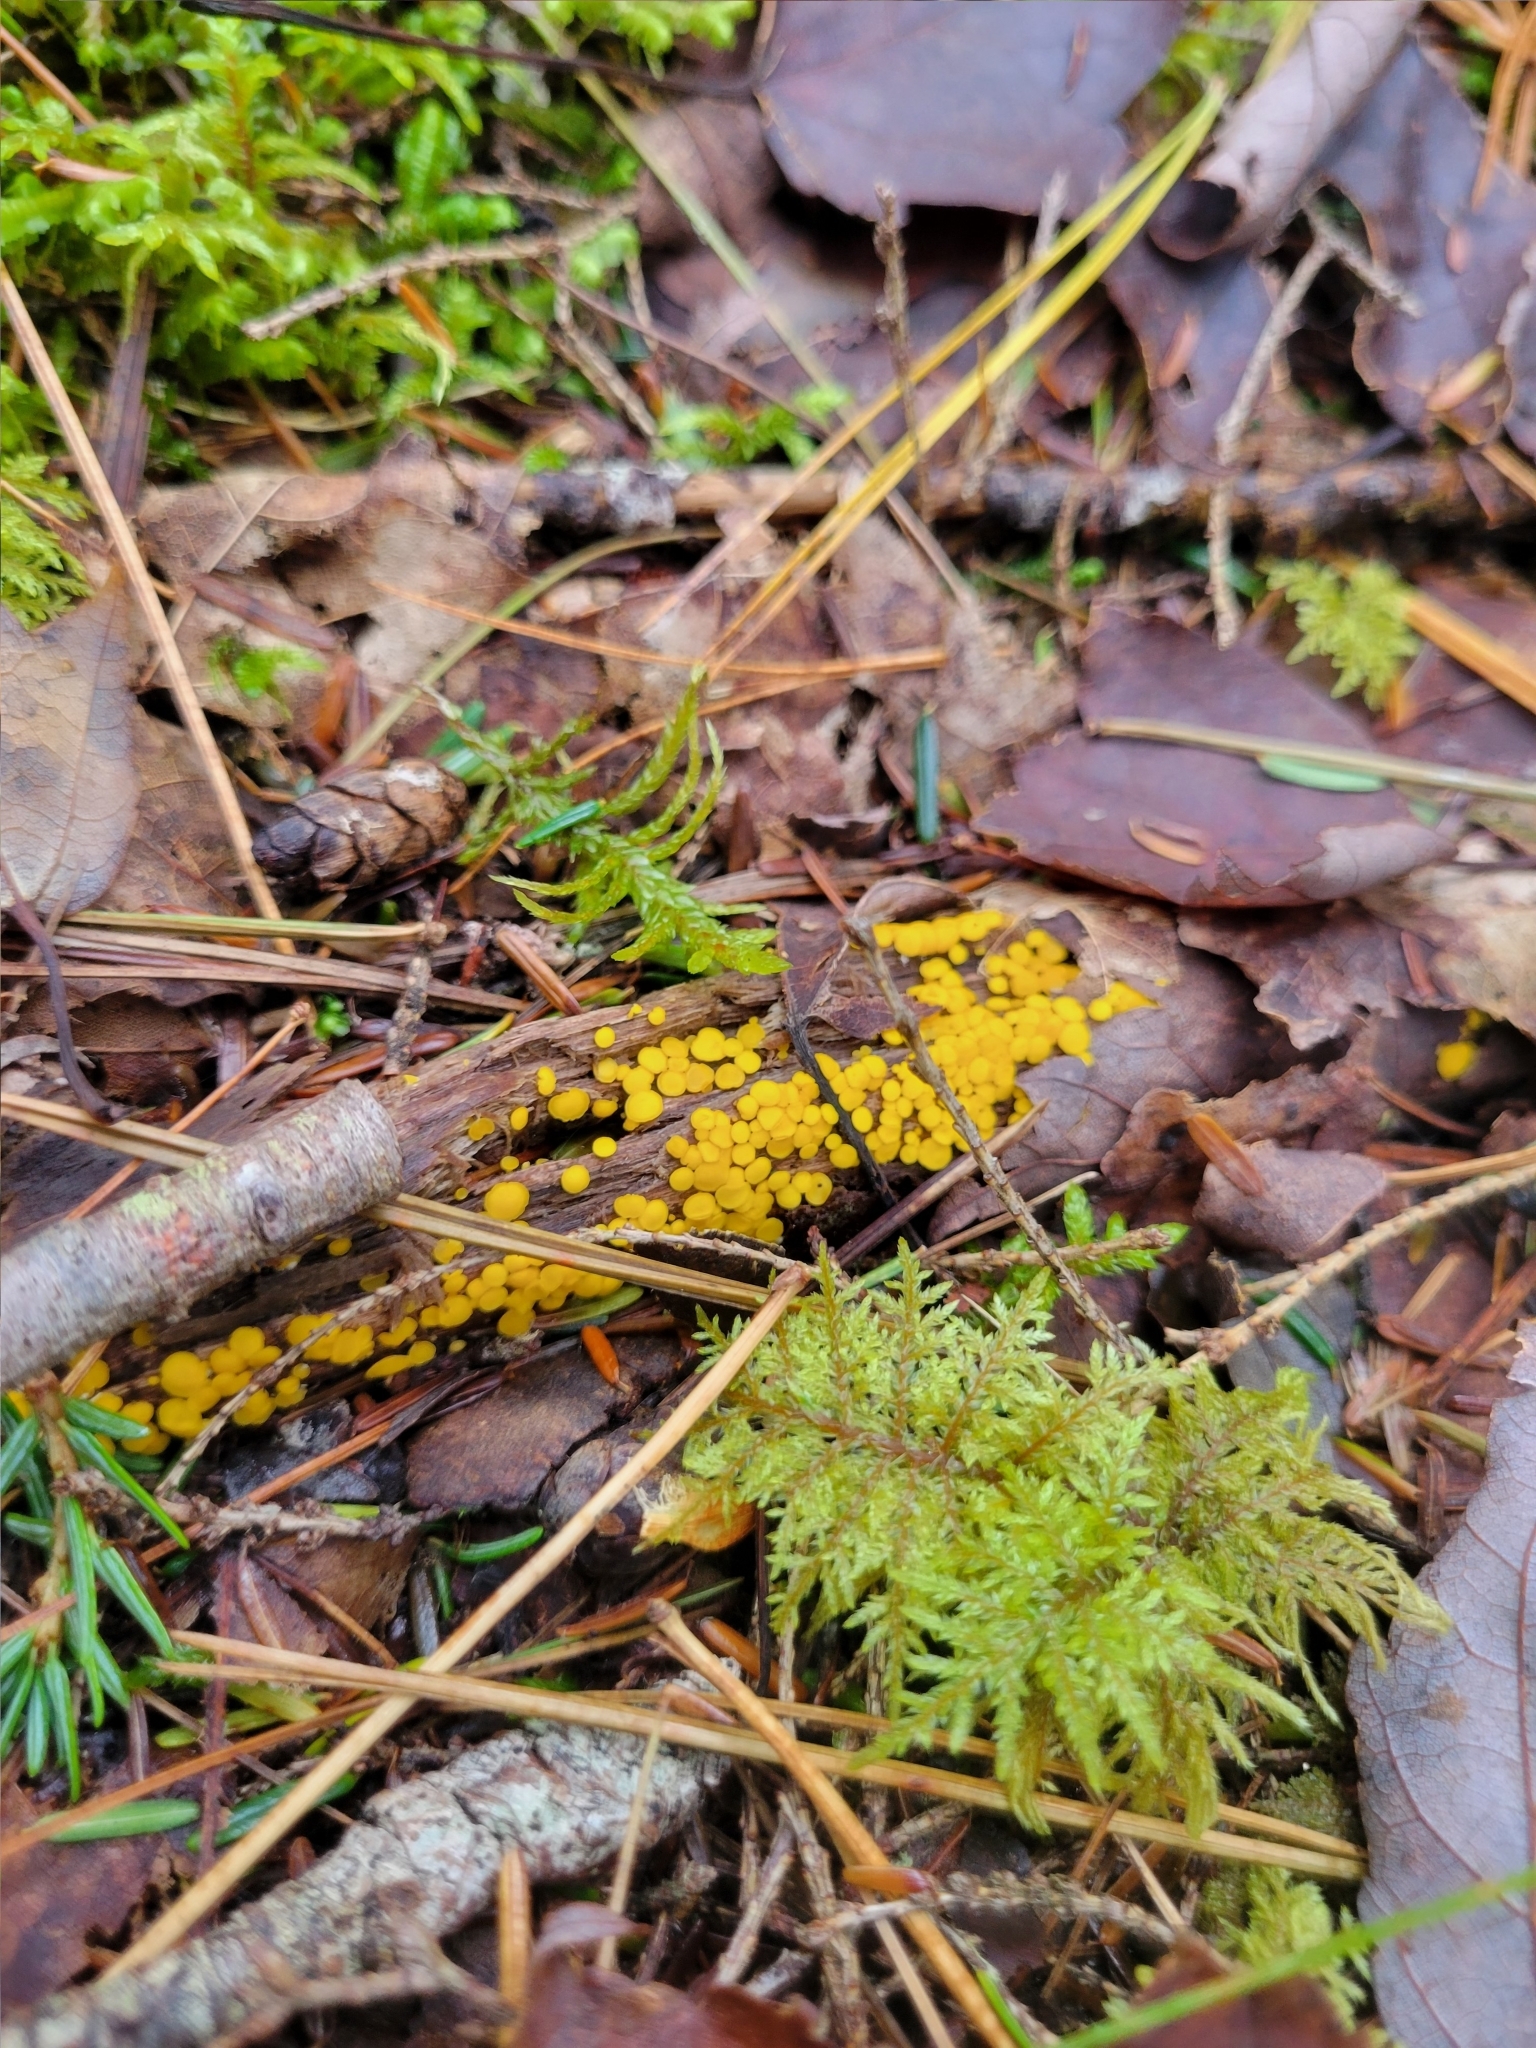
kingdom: Fungi
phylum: Ascomycota
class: Leotiomycetes
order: Helotiales
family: Pezizellaceae
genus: Calycina
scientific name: Calycina citrina
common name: Yellow fairy cups
